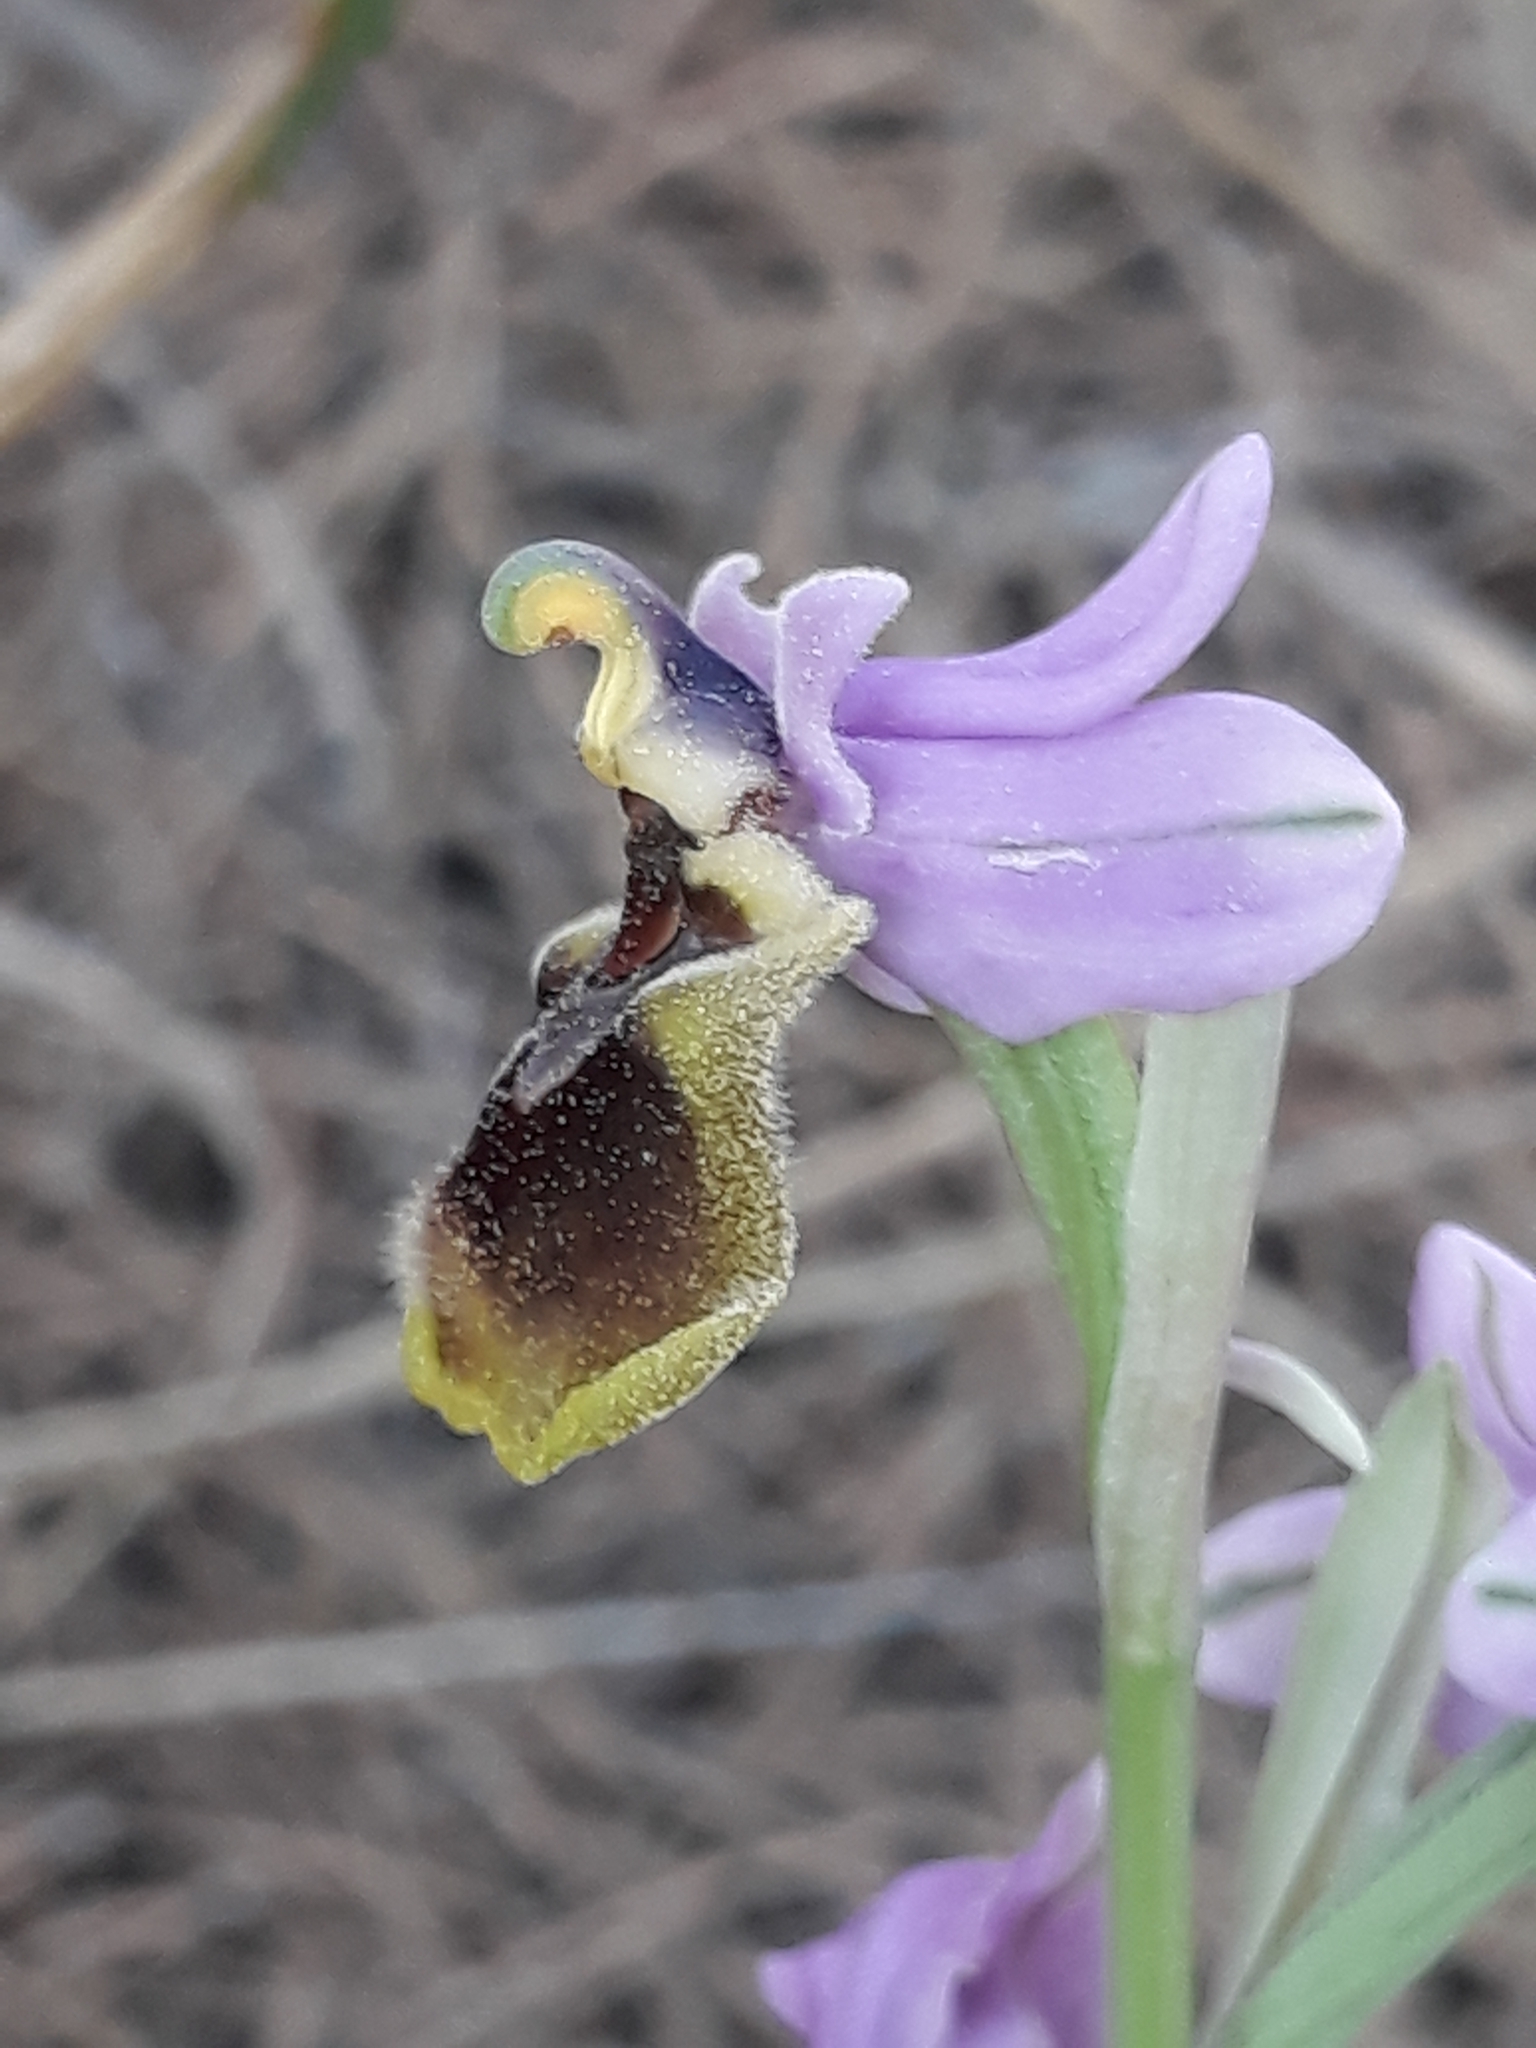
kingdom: Plantae
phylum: Tracheophyta
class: Liliopsida
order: Asparagales
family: Orchidaceae
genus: Ophrys
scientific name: Ophrys tenthredinifera
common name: Sawfly orchid
